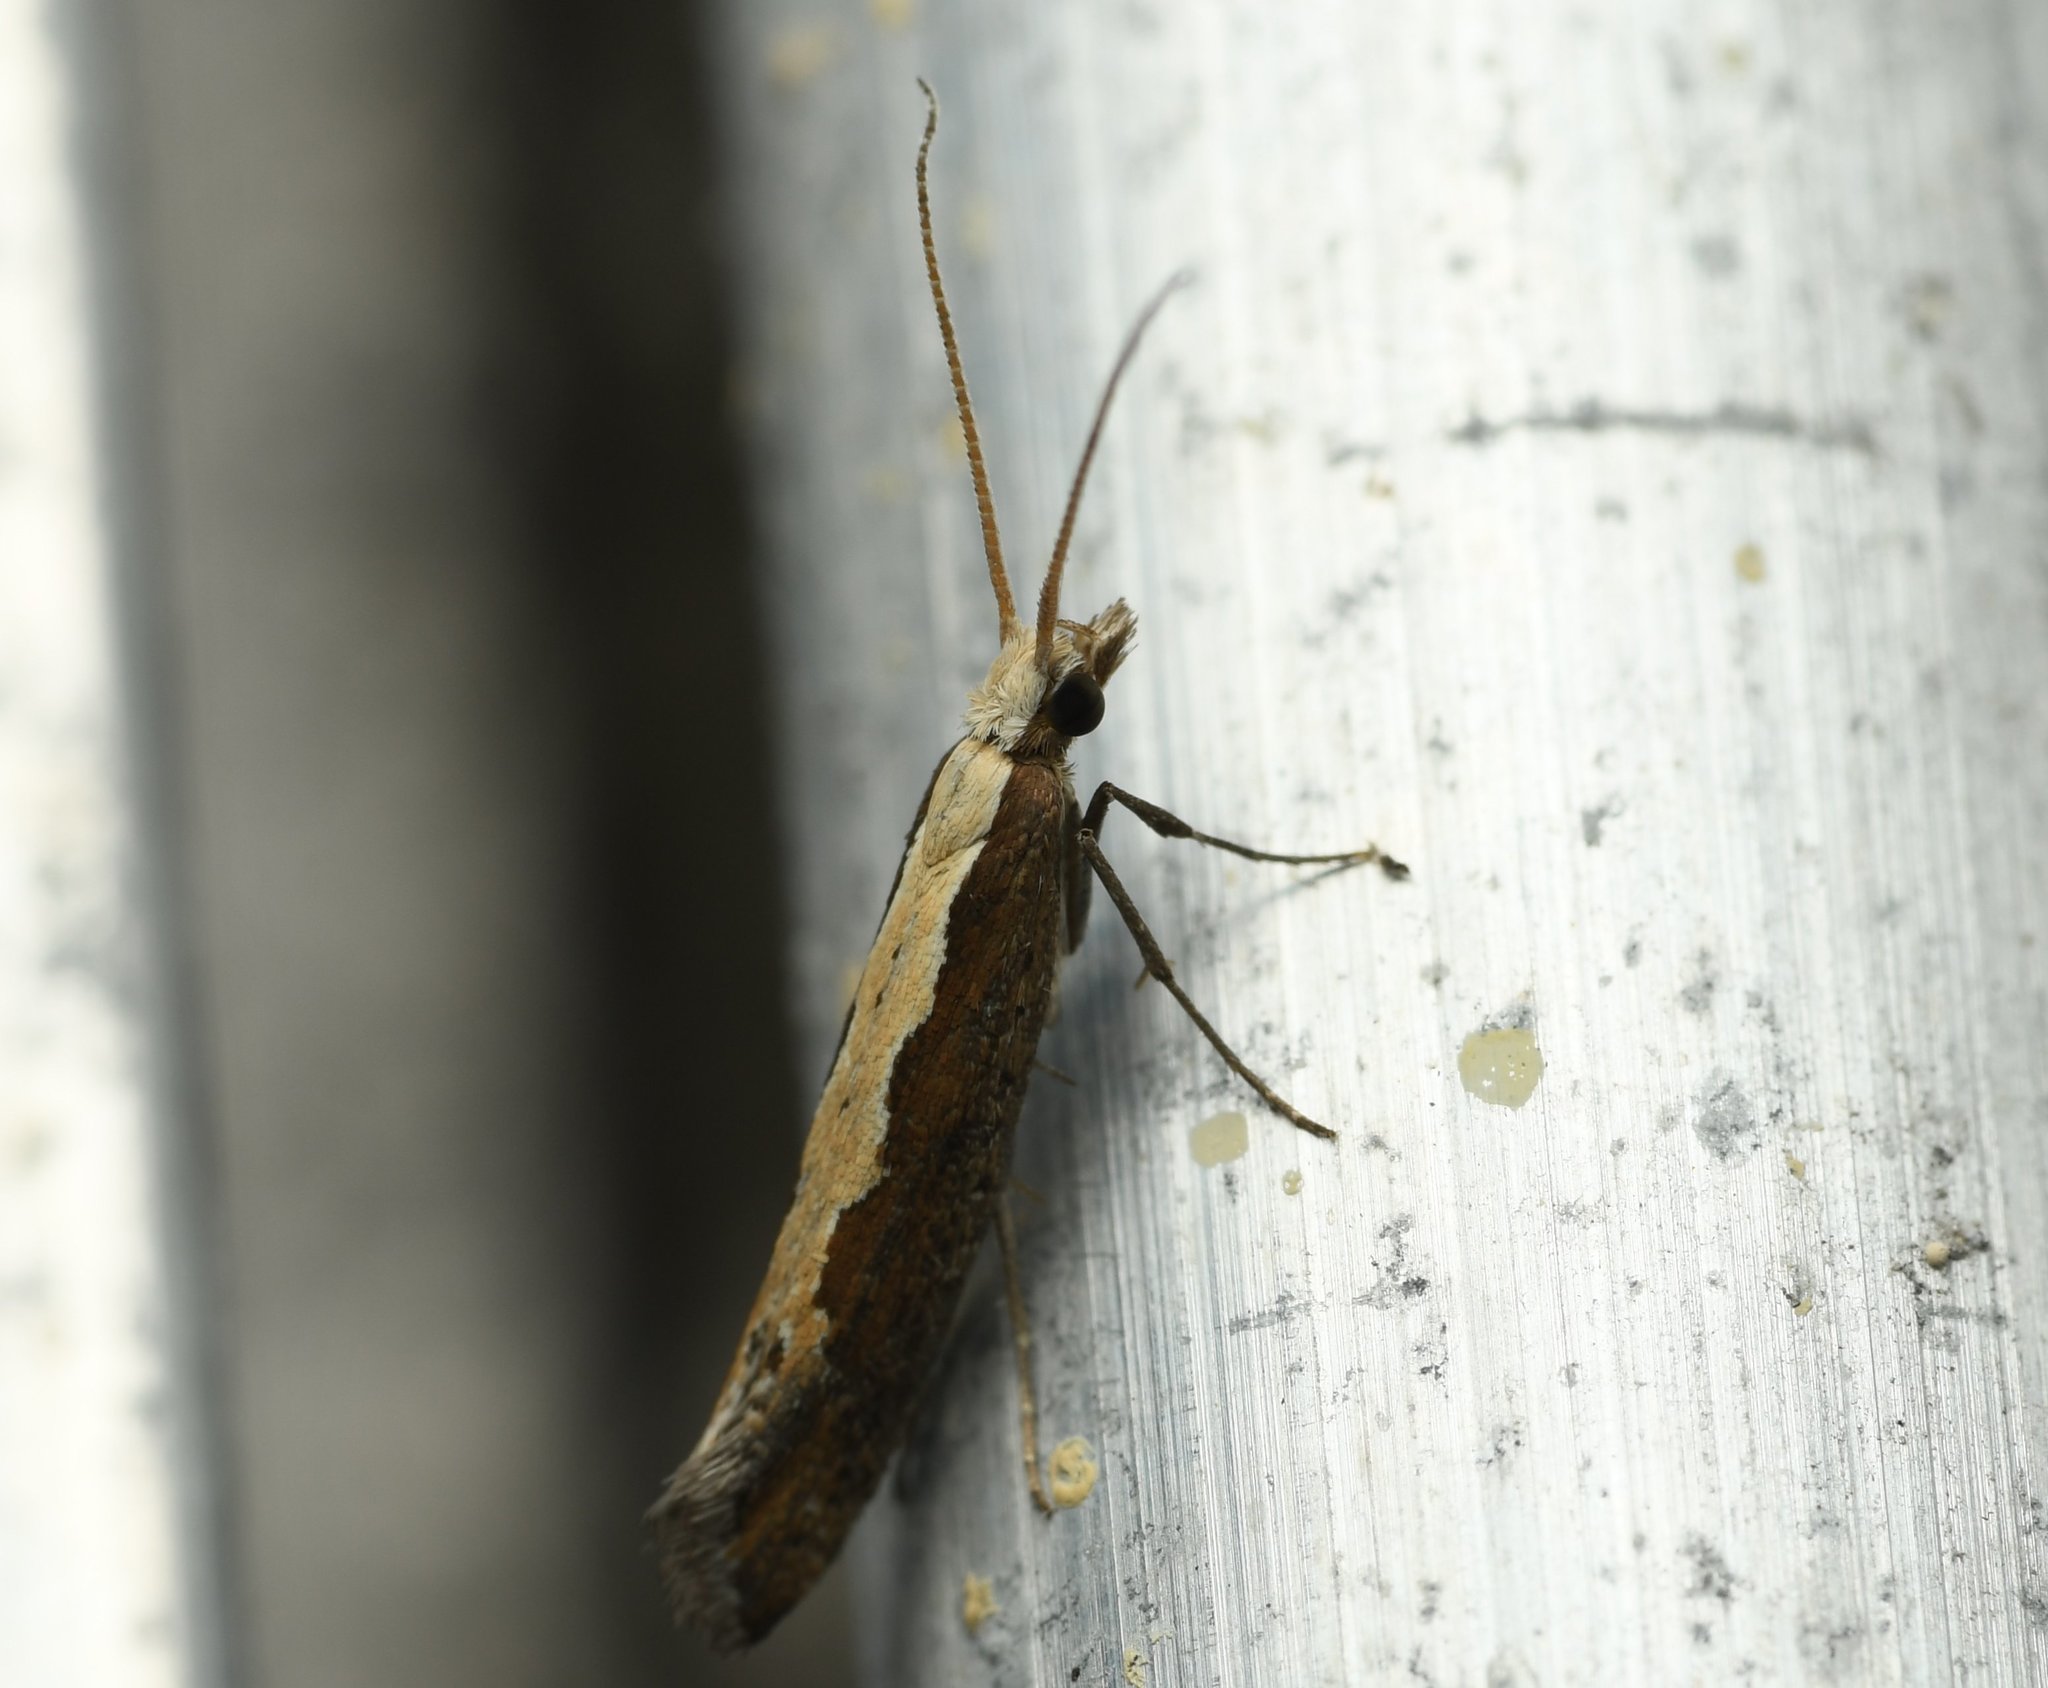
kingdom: Animalia
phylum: Arthropoda
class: Insecta
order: Lepidoptera
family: Plutellidae
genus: Plutella
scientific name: Plutella xylostella
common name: Diamond-back moth
